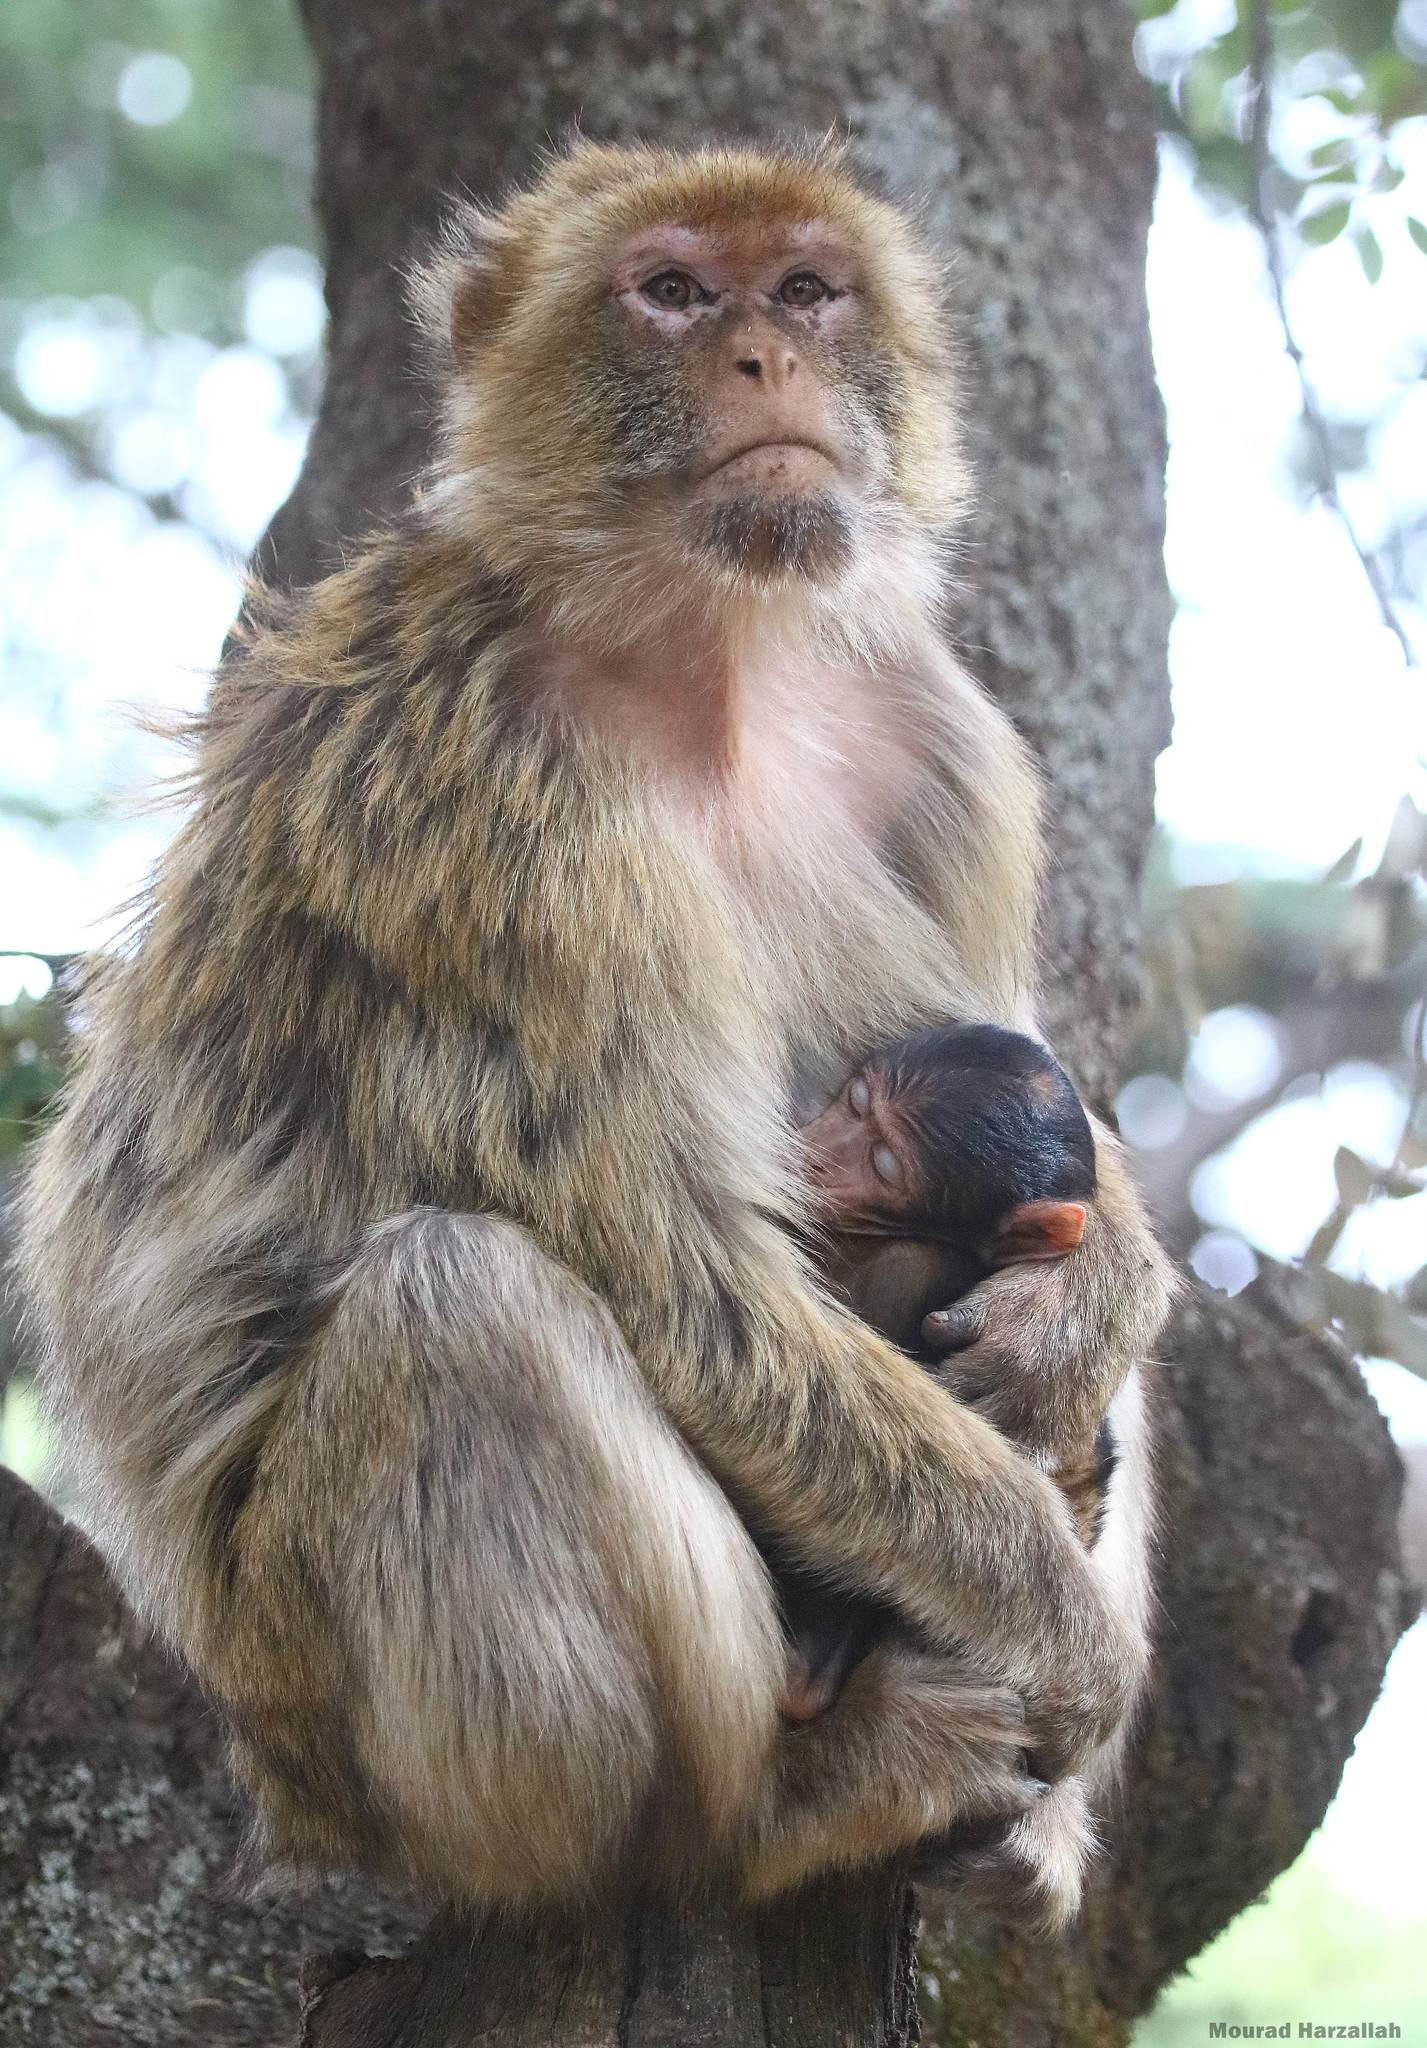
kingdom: Animalia
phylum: Chordata
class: Mammalia
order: Primates
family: Cercopithecidae
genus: Macaca
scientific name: Macaca sylvanus
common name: Barbary macaque
